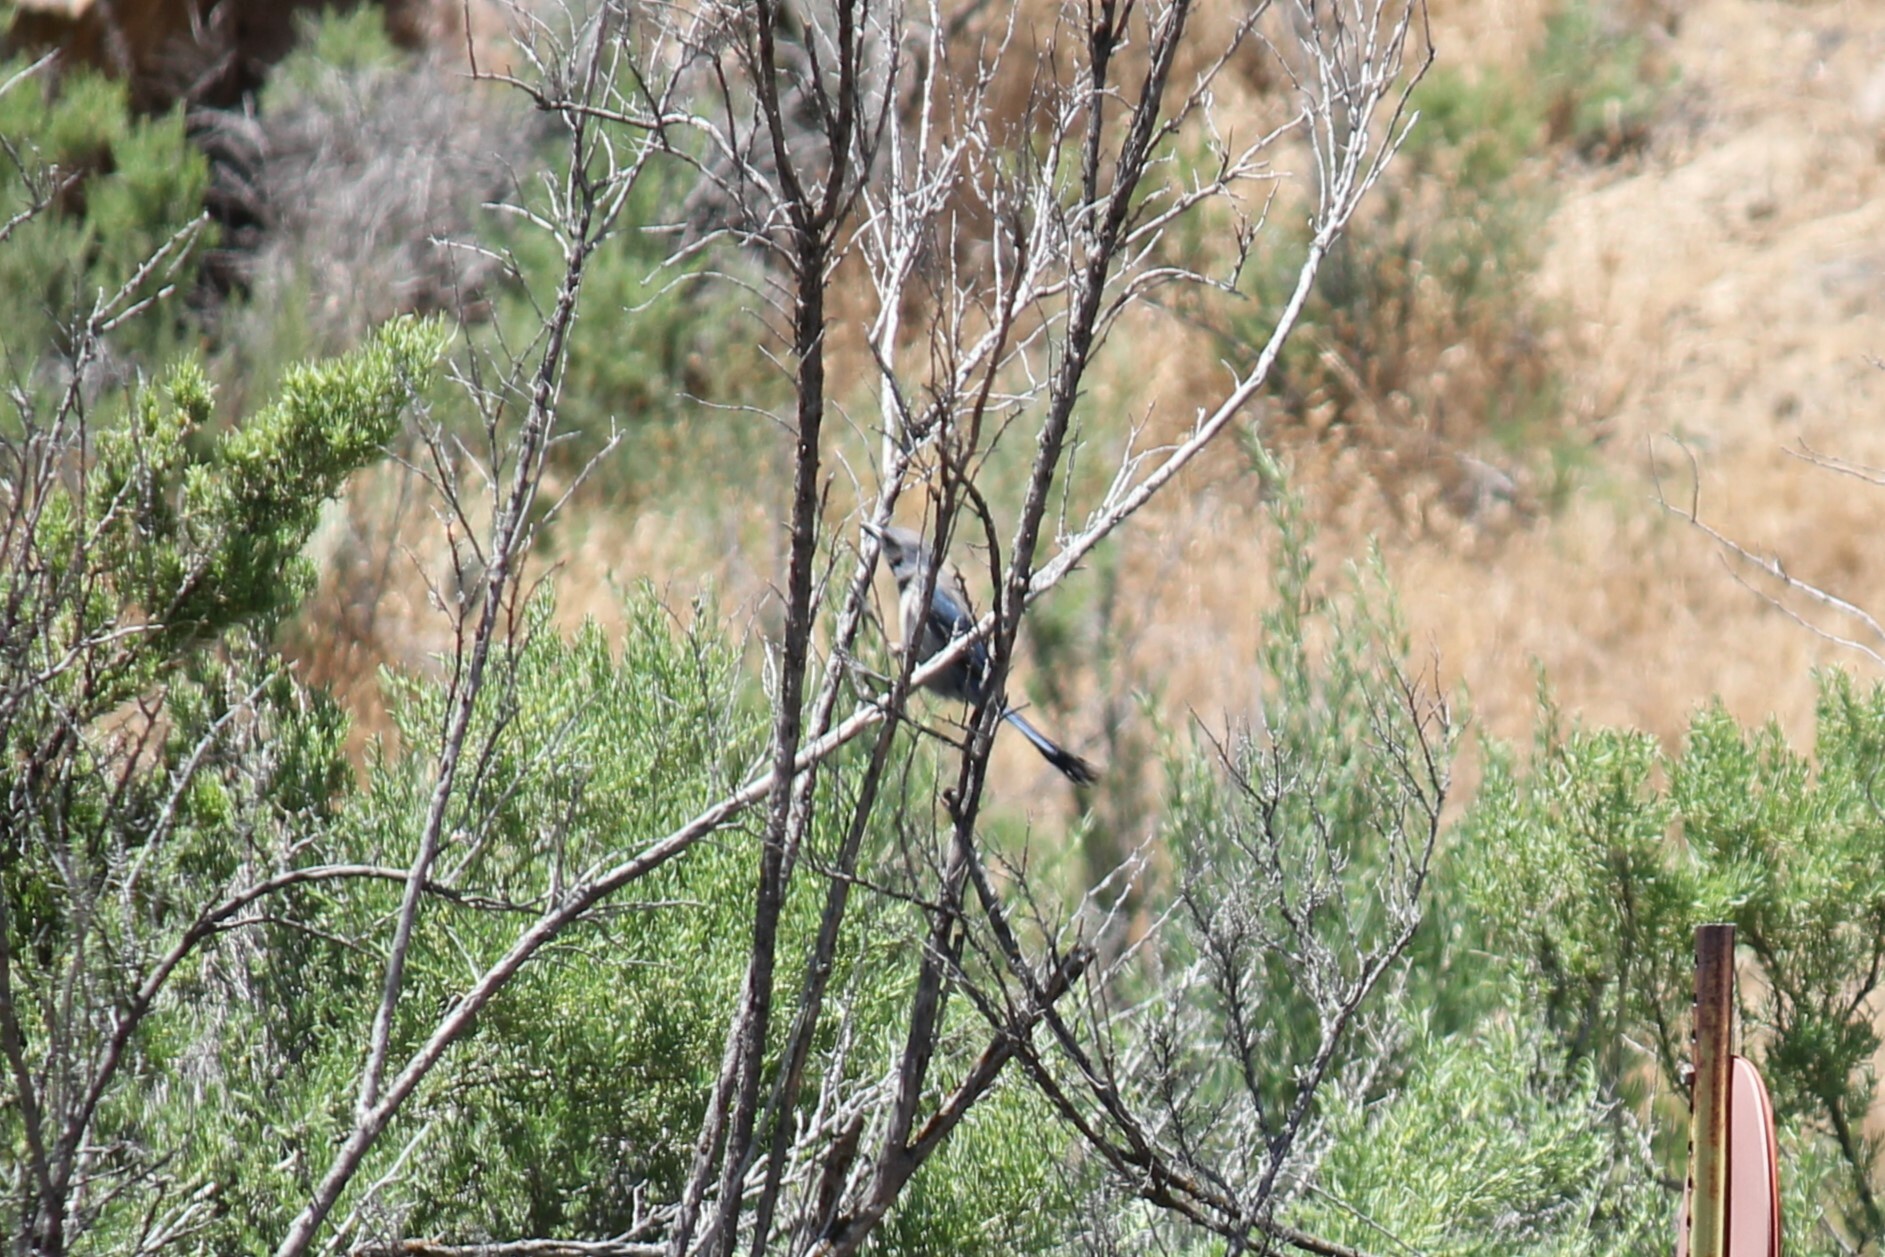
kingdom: Animalia
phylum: Chordata
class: Aves
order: Passeriformes
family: Corvidae
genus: Aphelocoma
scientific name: Aphelocoma woodhouseii
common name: Woodhouse's scrub-jay
